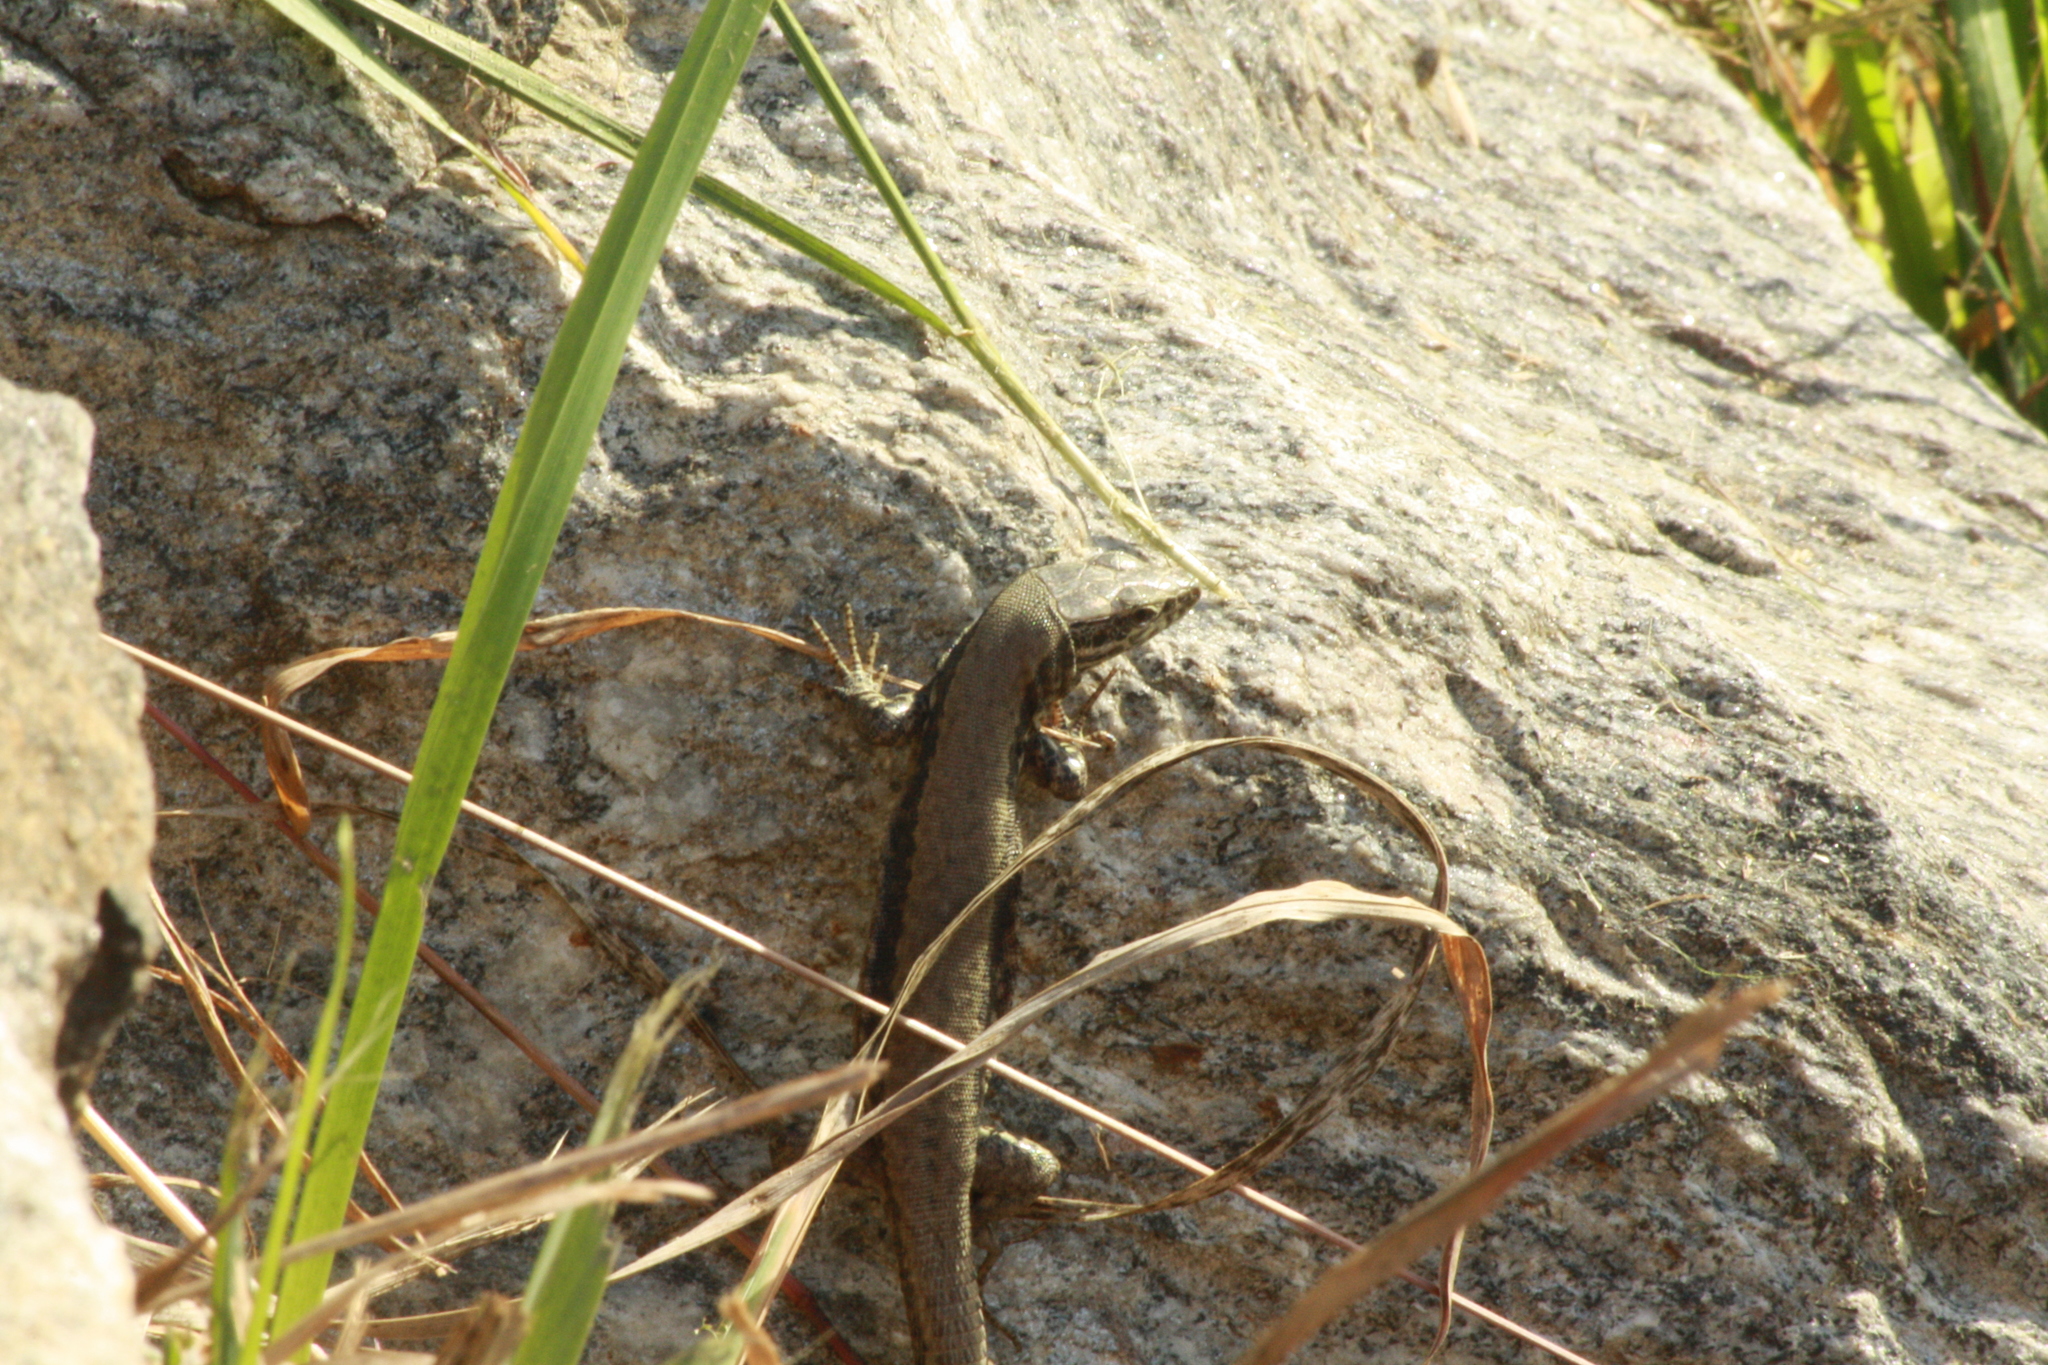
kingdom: Animalia
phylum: Chordata
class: Squamata
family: Lacertidae
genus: Podarcis
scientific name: Podarcis muralis
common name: Common wall lizard
